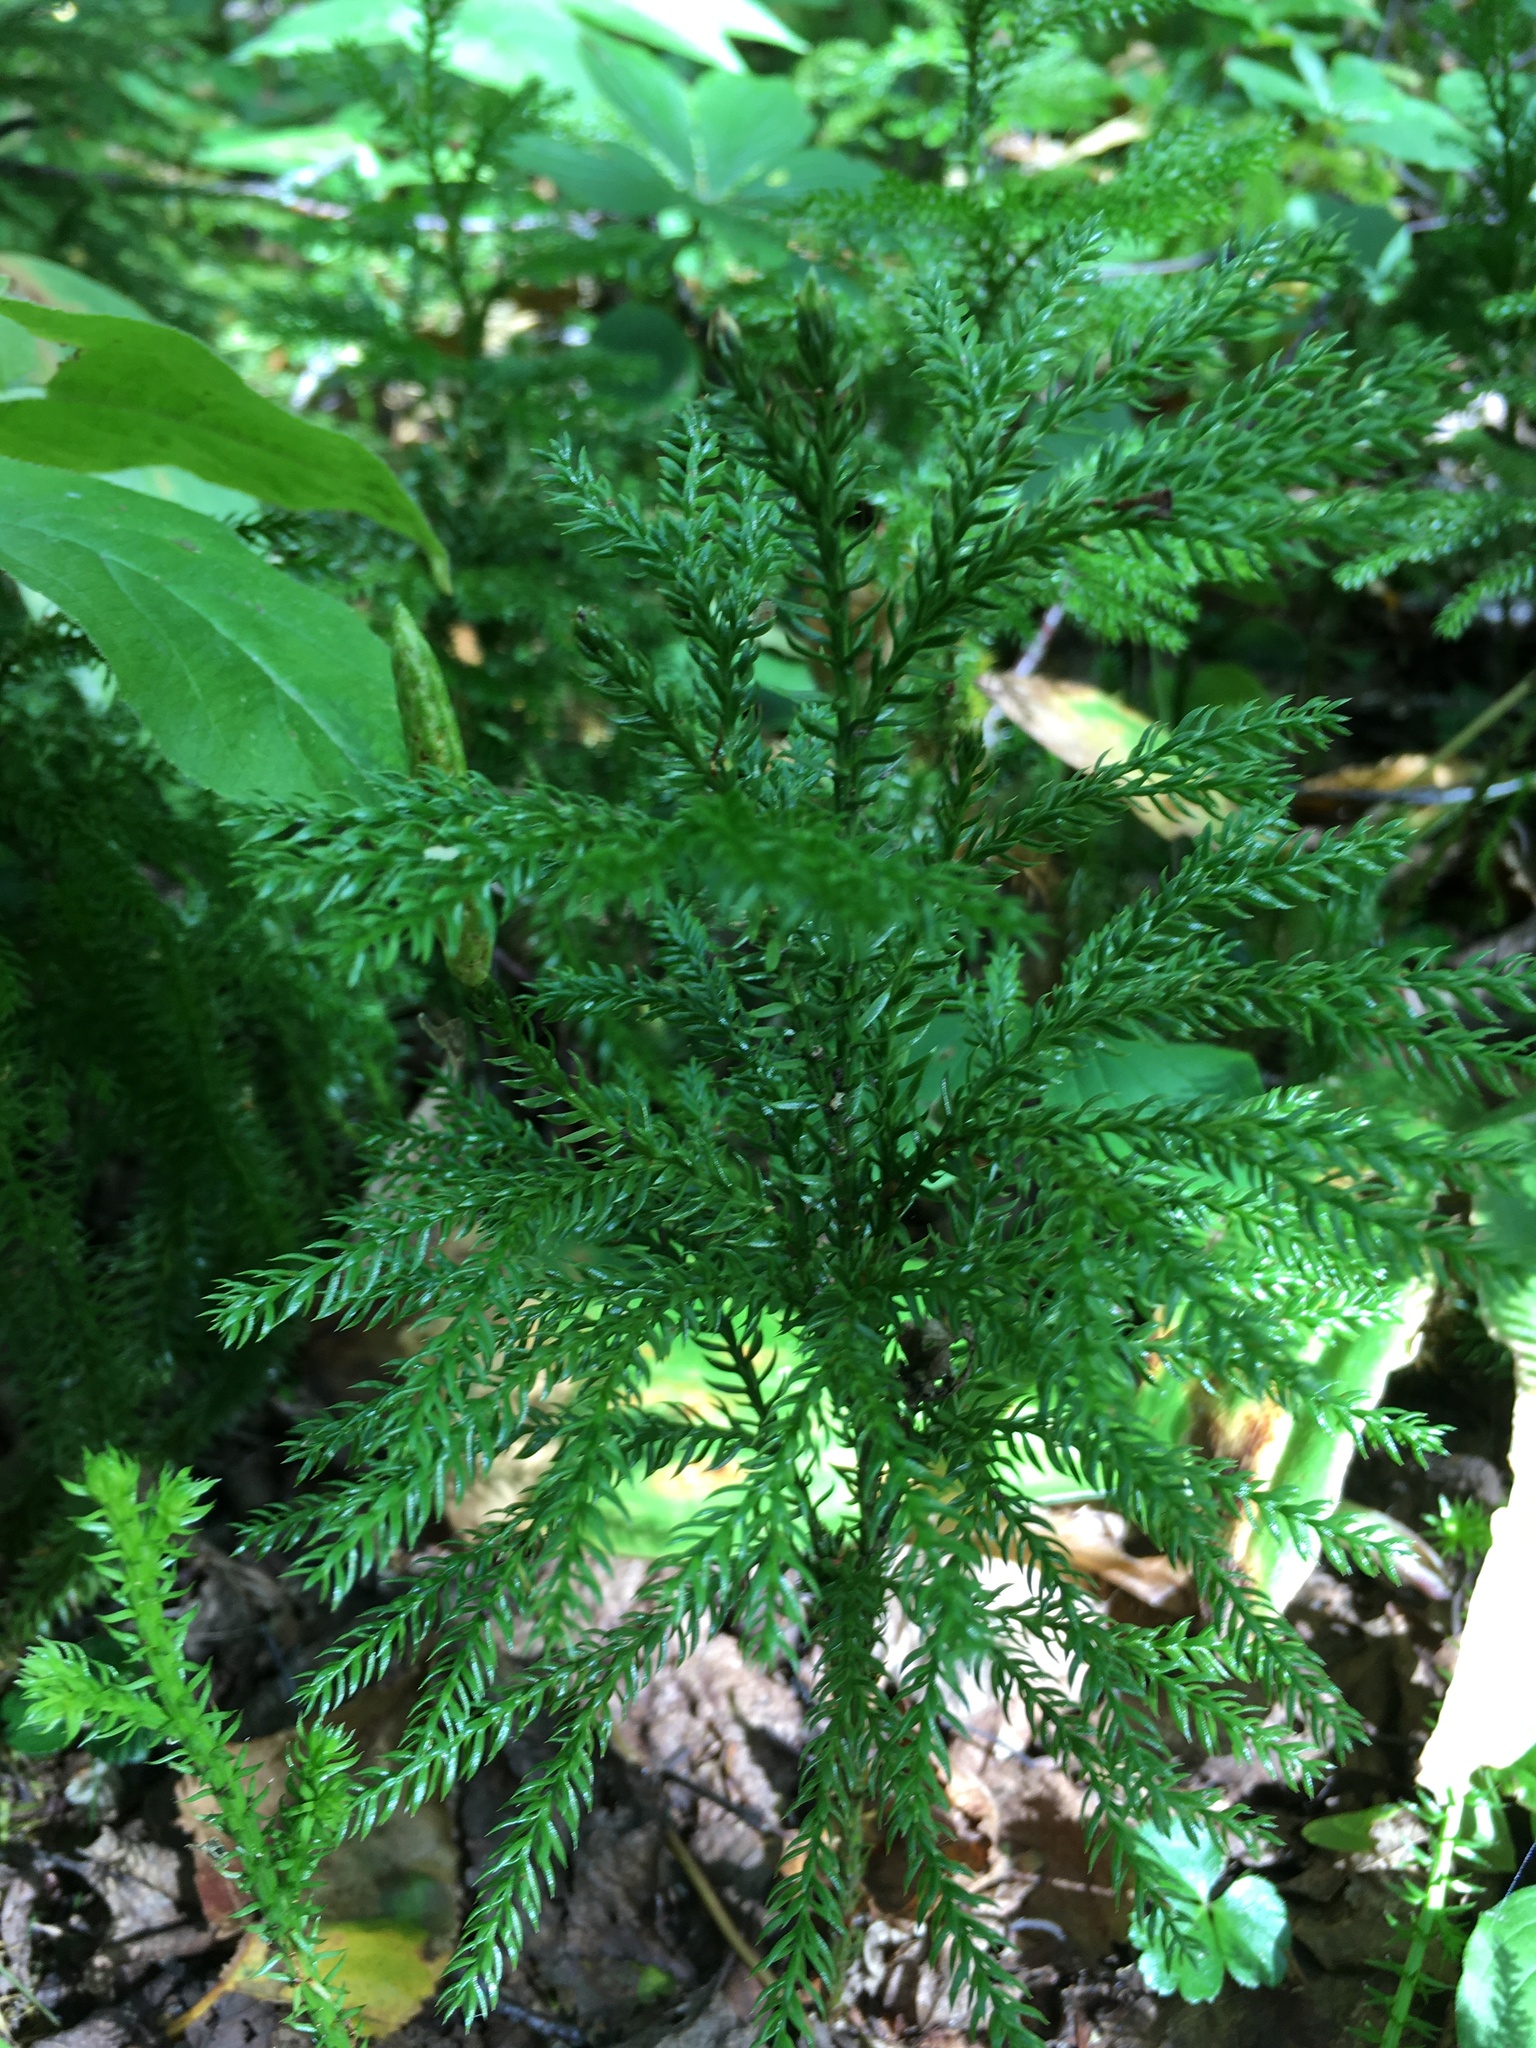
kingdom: Plantae
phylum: Tracheophyta
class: Lycopodiopsida
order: Lycopodiales
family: Lycopodiaceae
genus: Dendrolycopodium
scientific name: Dendrolycopodium dendroideum
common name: Northern tree-clubmoss
